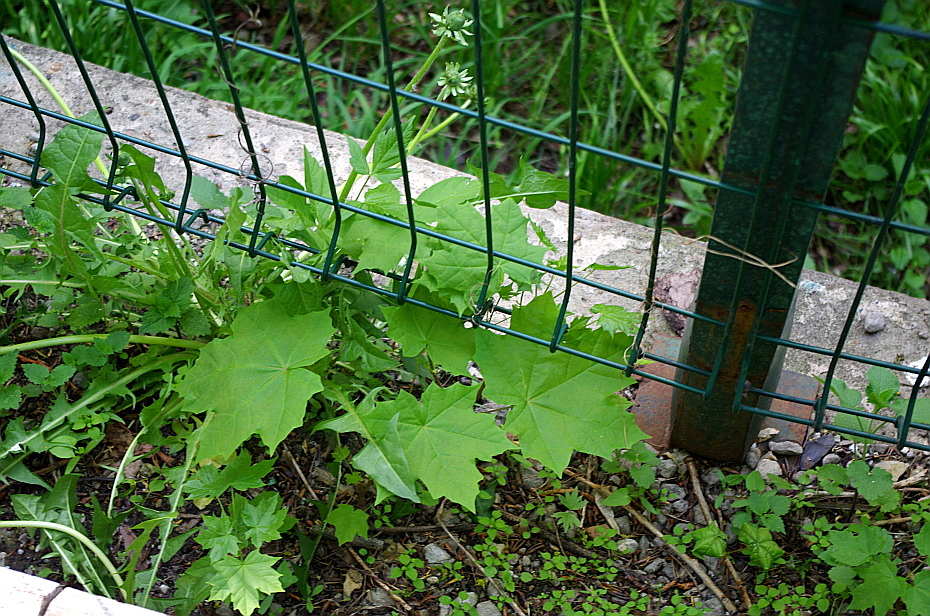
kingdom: Plantae
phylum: Tracheophyta
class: Magnoliopsida
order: Sapindales
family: Sapindaceae
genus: Acer
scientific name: Acer platanoides
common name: Norway maple
